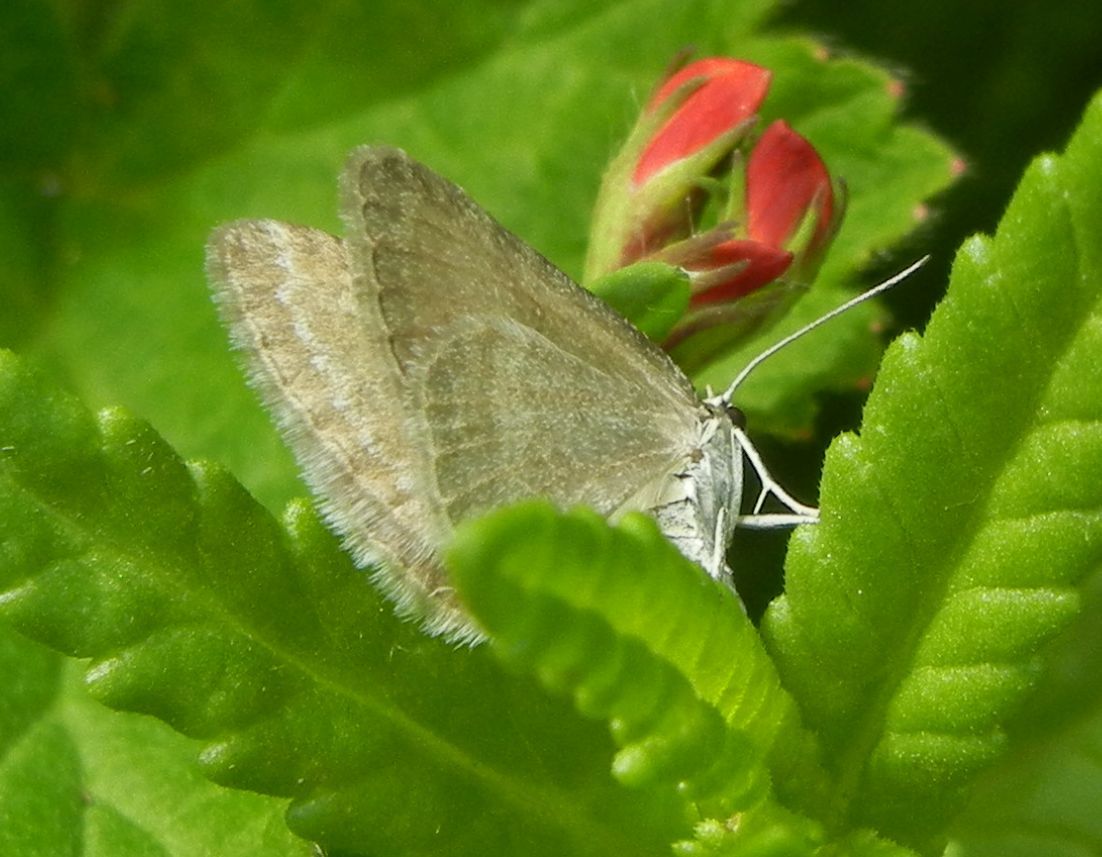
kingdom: Animalia
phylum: Arthropoda
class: Insecta
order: Lepidoptera
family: Geometridae
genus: Perizoma
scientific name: Perizoma albulata
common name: Grass rivulet
